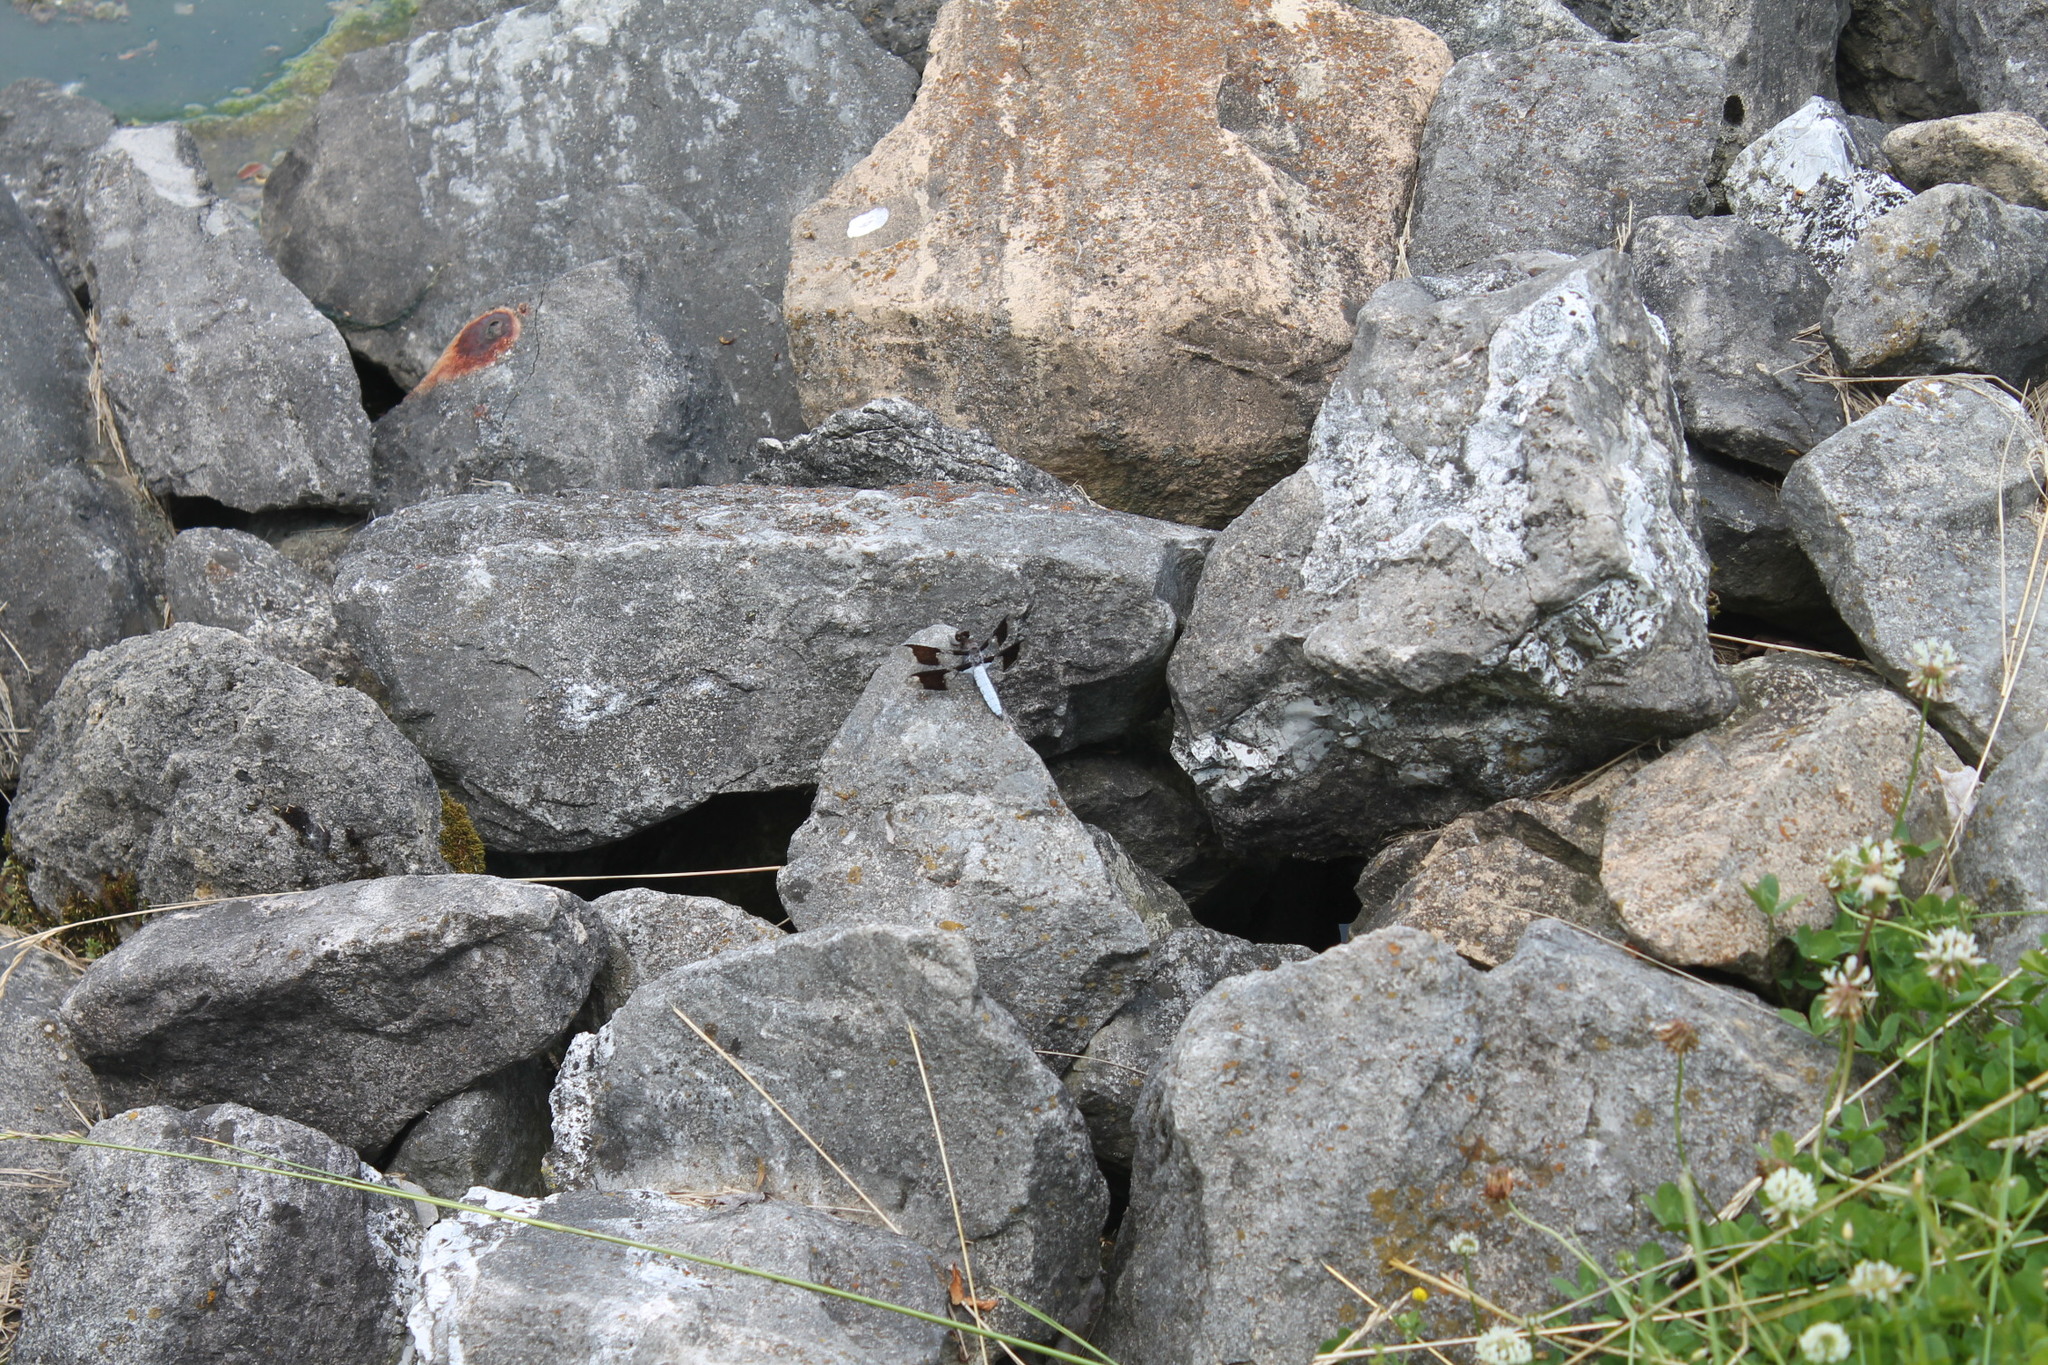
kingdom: Animalia
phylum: Arthropoda
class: Insecta
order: Odonata
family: Libellulidae
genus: Plathemis
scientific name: Plathemis lydia
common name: Common whitetail
